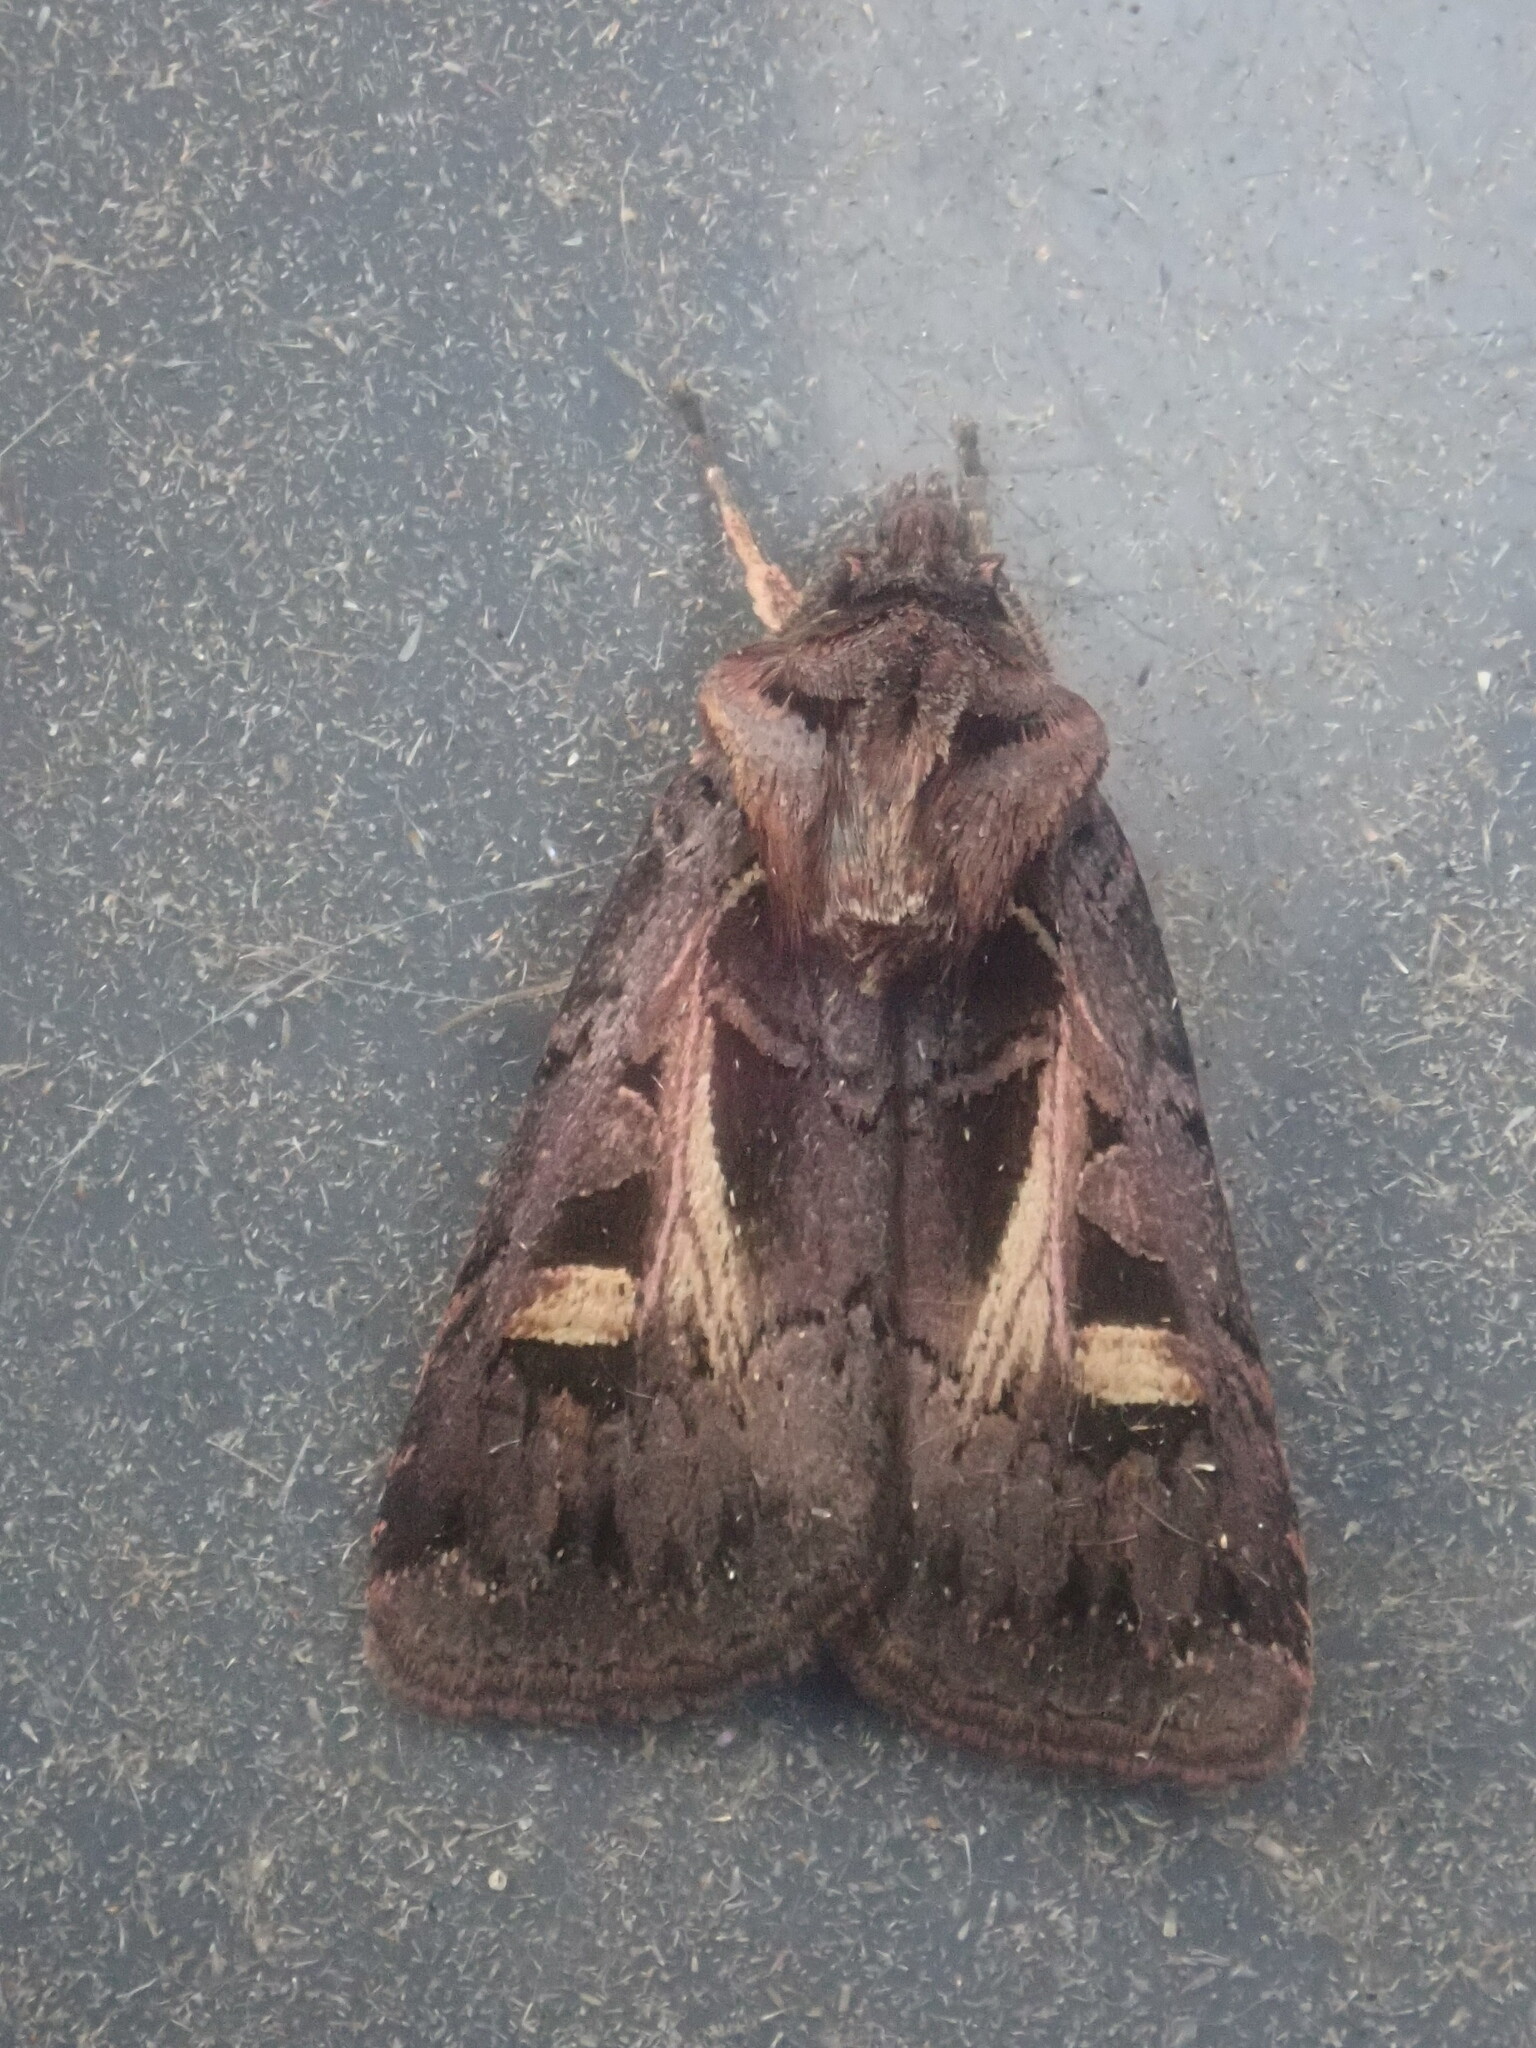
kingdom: Animalia
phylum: Arthropoda
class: Insecta
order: Lepidoptera
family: Noctuidae
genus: Feltia
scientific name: Feltia herilis
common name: Master's dart
